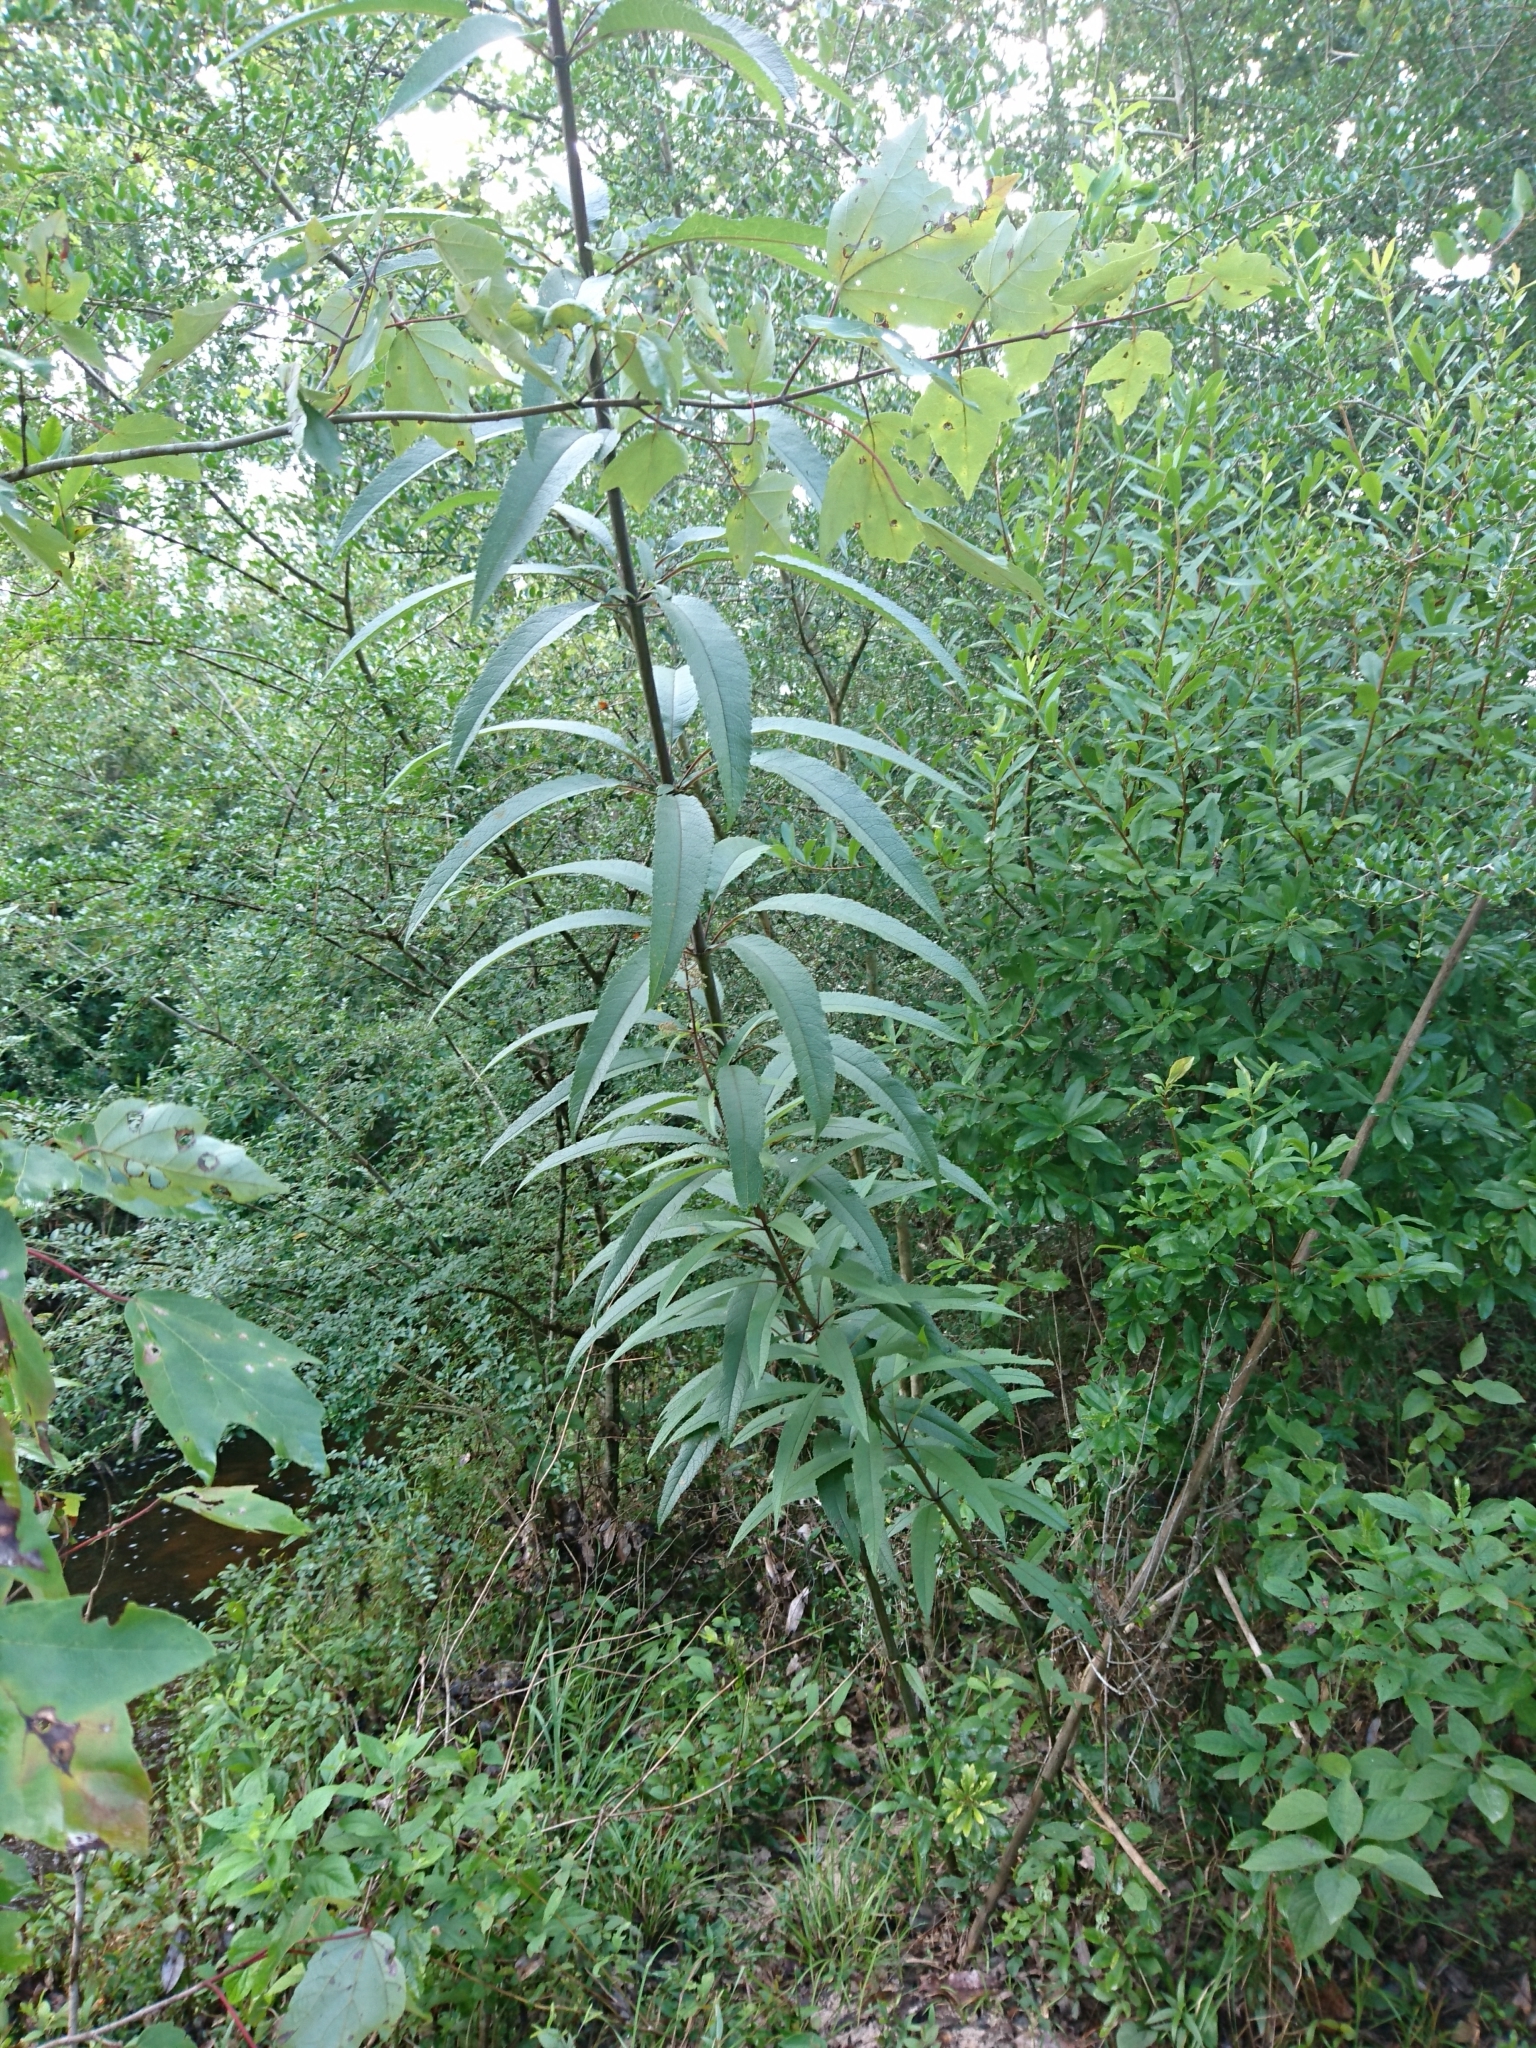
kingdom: Plantae
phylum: Tracheophyta
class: Magnoliopsida
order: Asterales
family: Asteraceae
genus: Eutrochium
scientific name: Eutrochium fistulosum
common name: Trumpetweed
